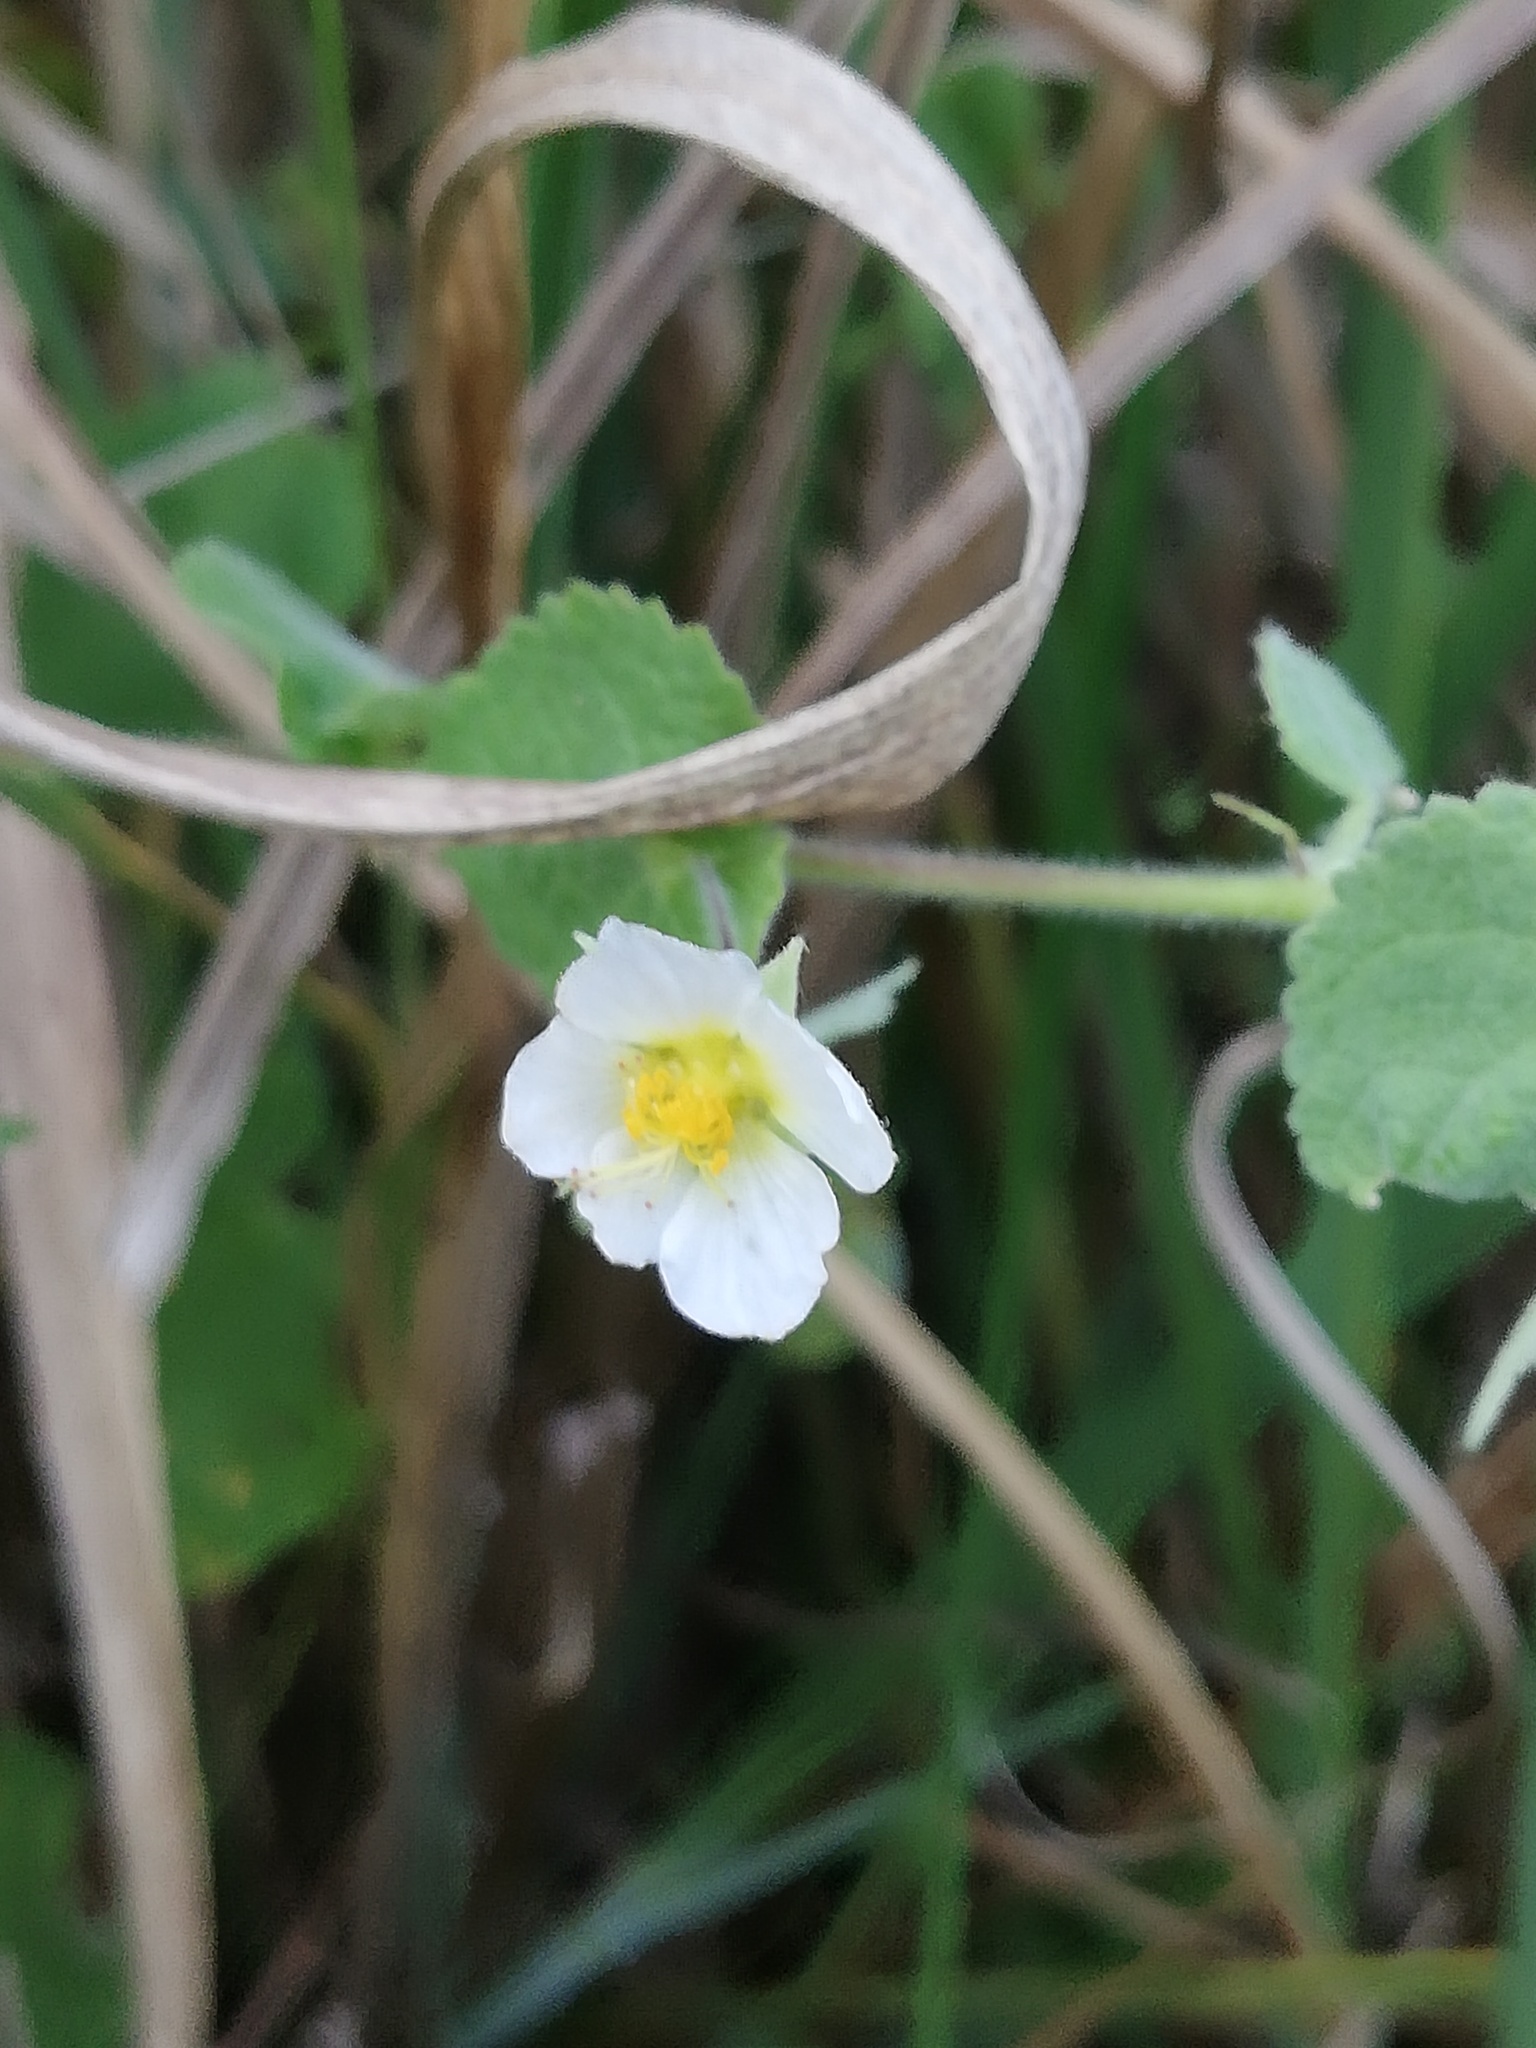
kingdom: Plantae
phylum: Tracheophyta
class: Magnoliopsida
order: Malvales
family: Malvaceae
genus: Herissantia
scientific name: Herissantia crispa
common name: Bladdermallow
